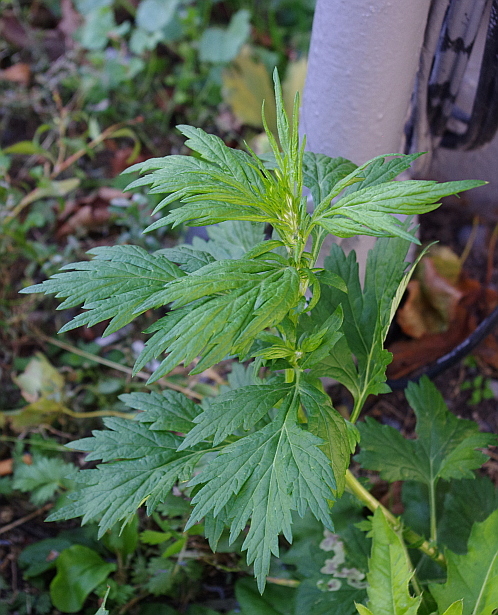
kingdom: Plantae
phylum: Tracheophyta
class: Magnoliopsida
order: Asterales
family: Asteraceae
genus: Artemisia
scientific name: Artemisia vulgaris
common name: Mugwort
